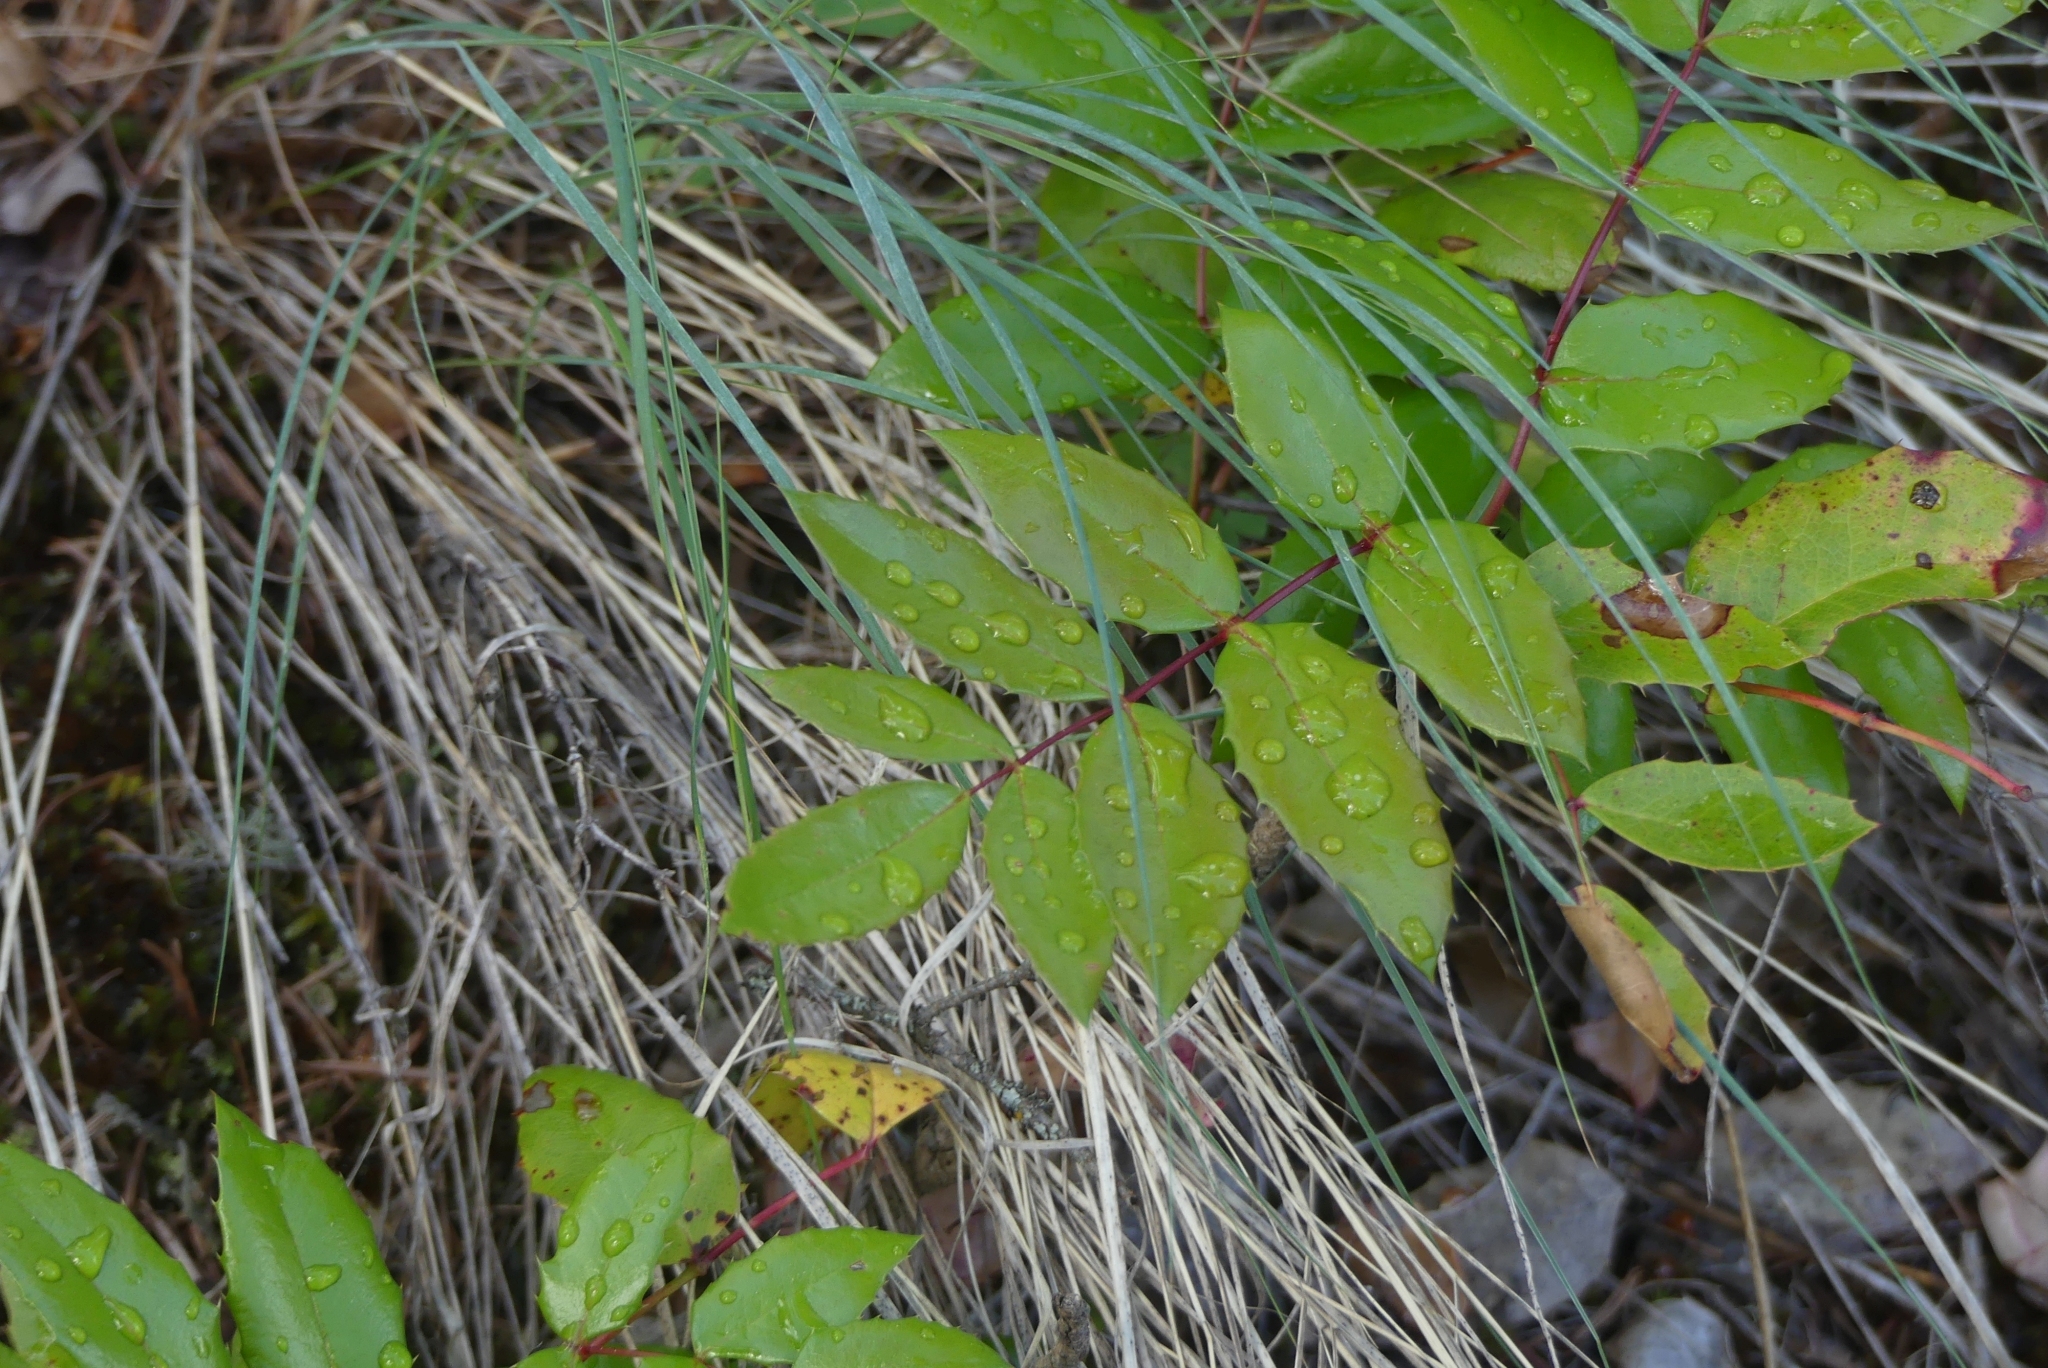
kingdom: Plantae
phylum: Tracheophyta
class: Magnoliopsida
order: Ranunculales
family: Berberidaceae
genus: Mahonia
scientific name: Mahonia aquifolium
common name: Oregon-grape
